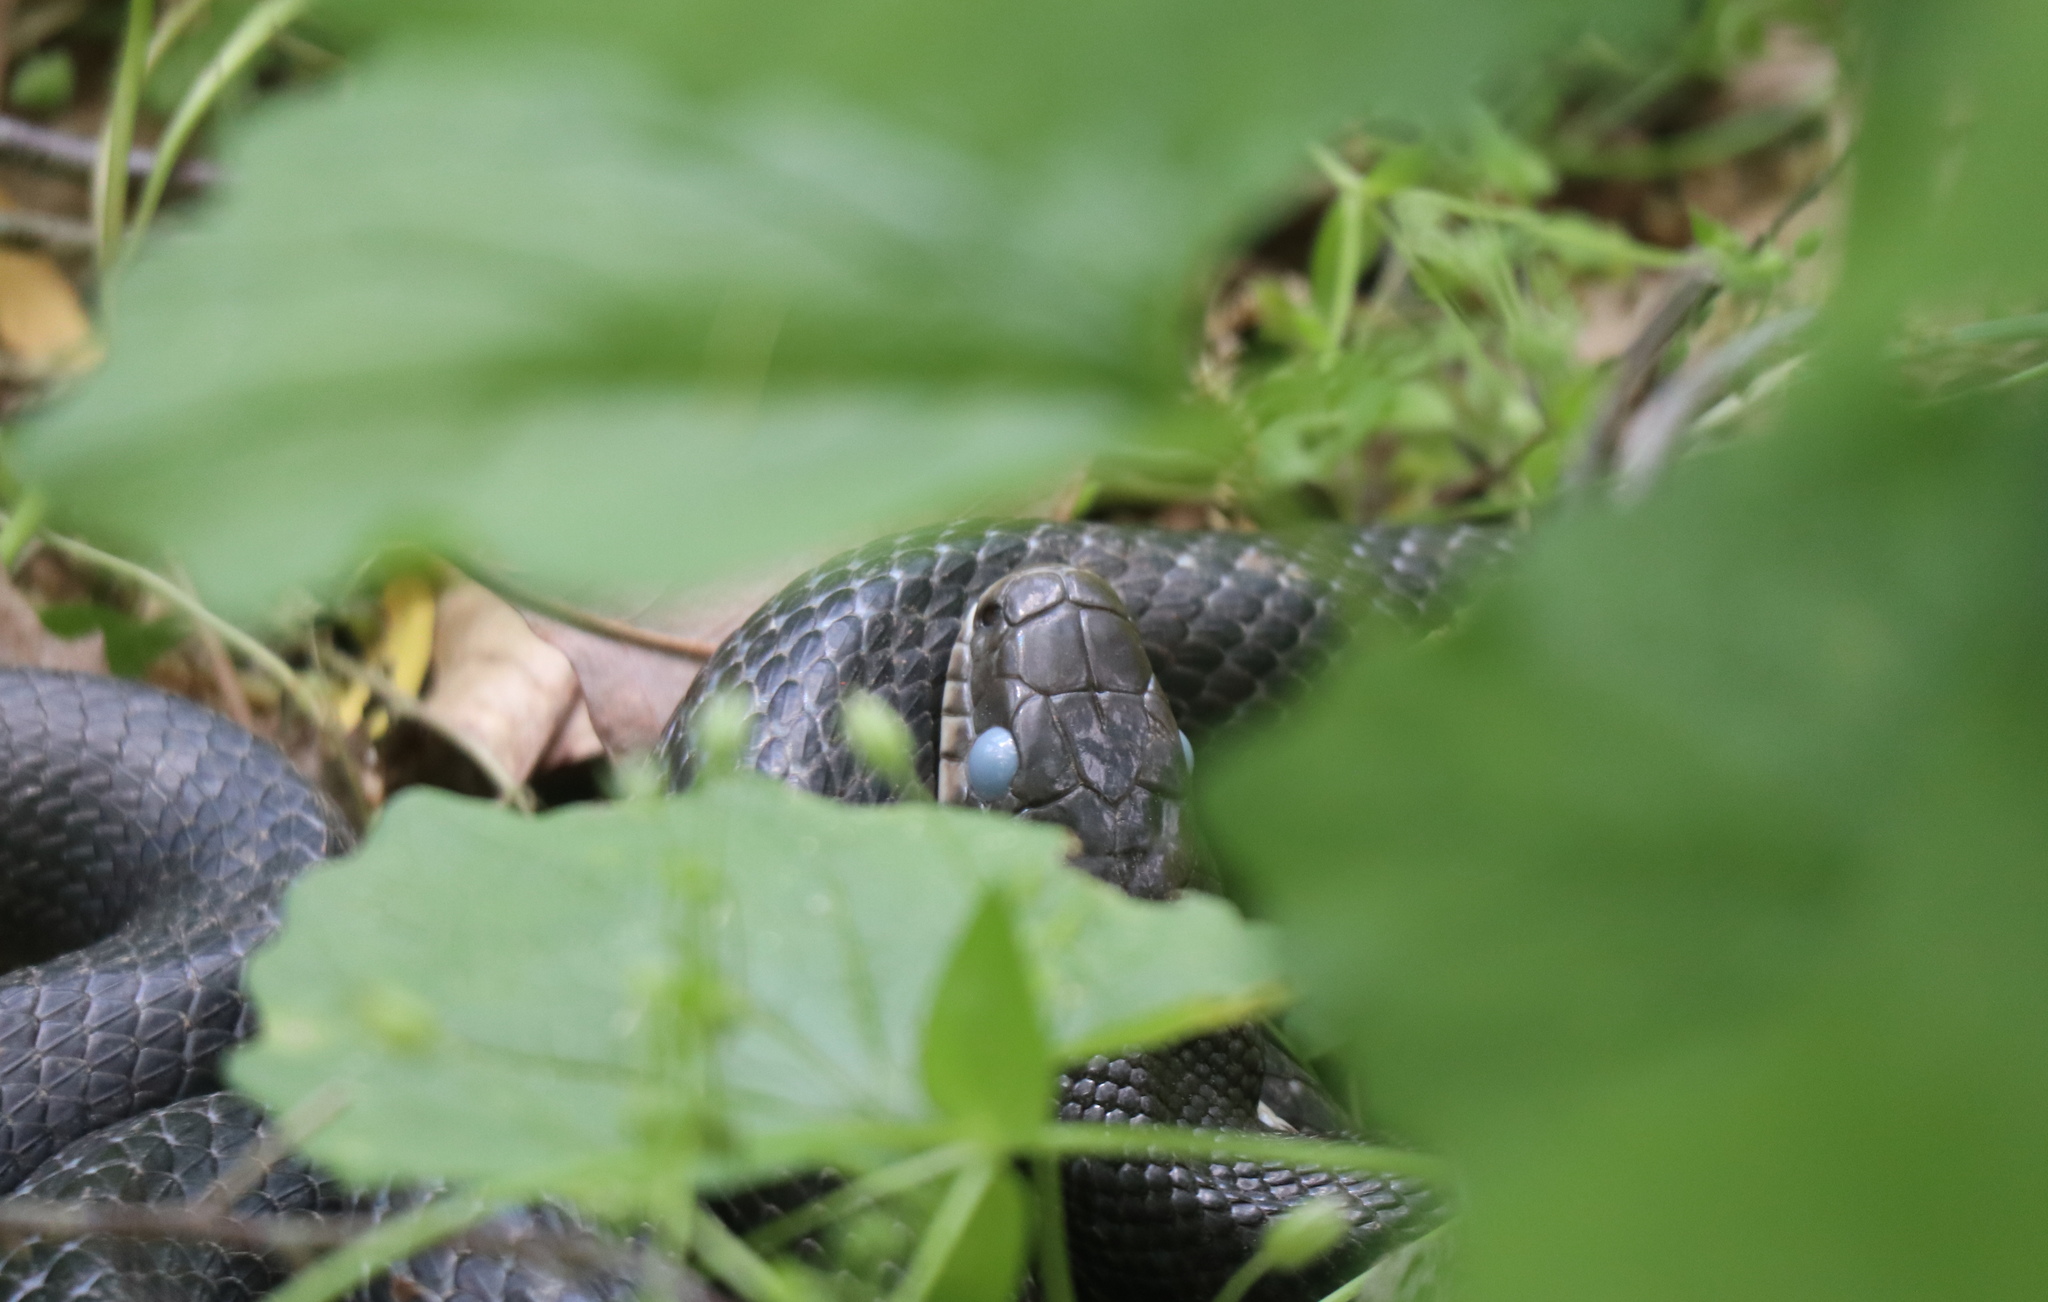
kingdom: Animalia
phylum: Chordata
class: Squamata
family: Colubridae
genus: Pantherophis
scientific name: Pantherophis alleghaniensis
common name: Eastern rat snake
